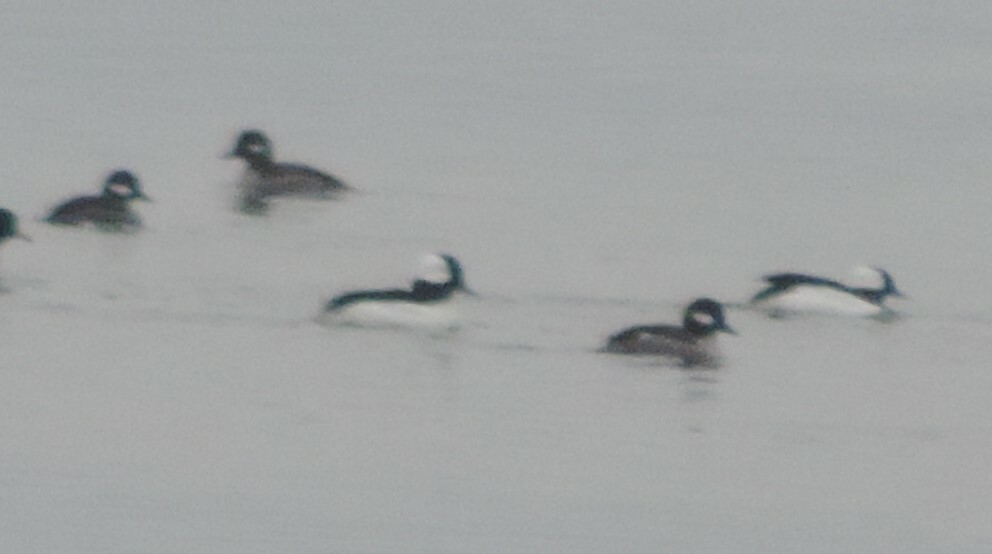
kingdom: Animalia
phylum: Chordata
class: Aves
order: Anseriformes
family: Anatidae
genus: Bucephala
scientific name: Bucephala albeola
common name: Bufflehead
